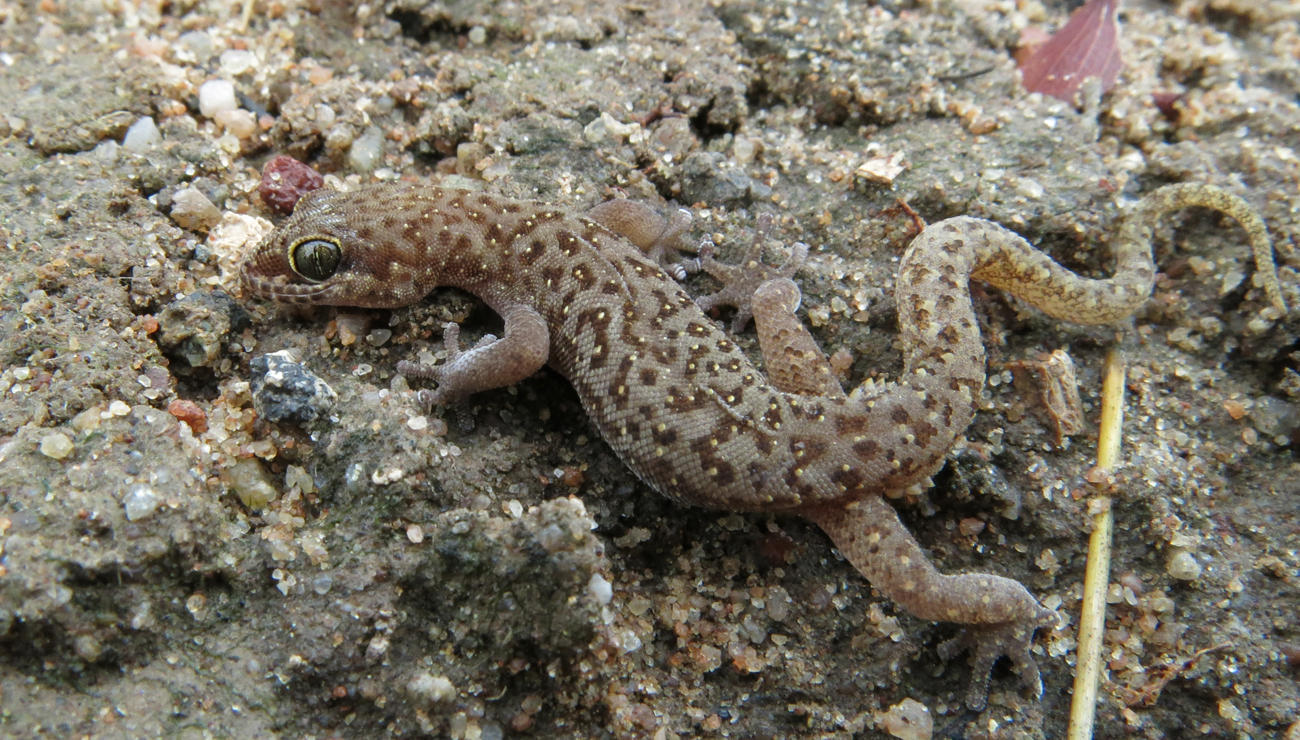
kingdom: Animalia
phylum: Chordata
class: Squamata
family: Gekkonidae
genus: Pachydactylus
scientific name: Pachydactylus punctatus
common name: Pointed thick-toed gecko
